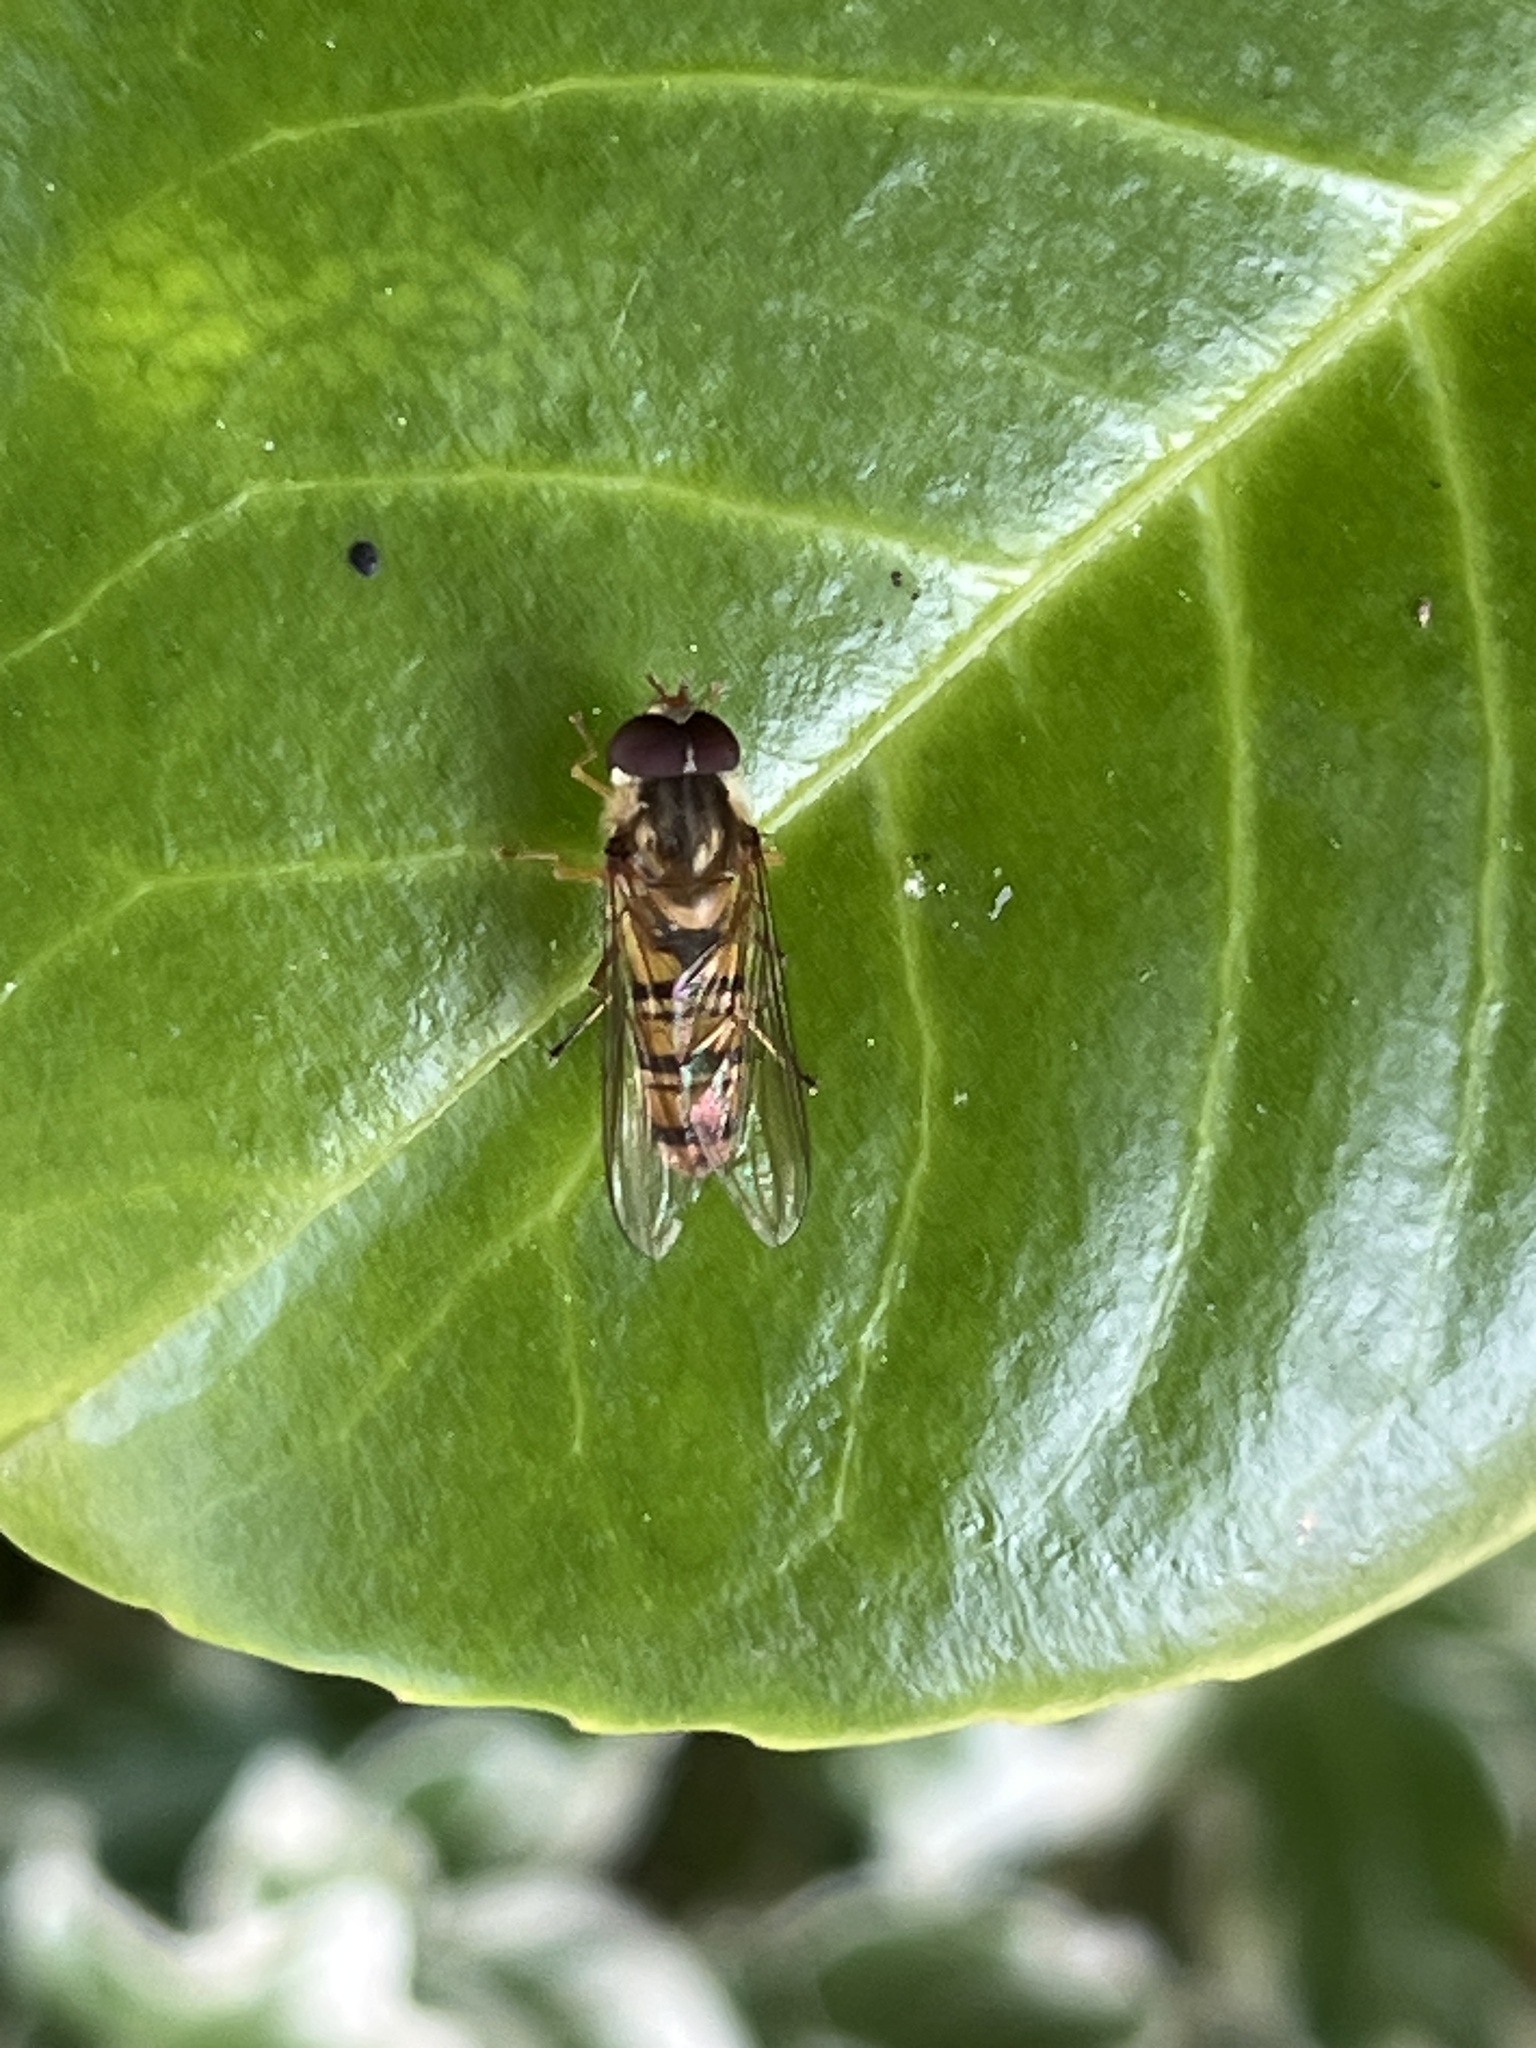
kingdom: Animalia
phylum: Arthropoda
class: Insecta
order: Diptera
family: Syrphidae
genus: Episyrphus
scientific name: Episyrphus balteatus
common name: Marmalade hoverfly
